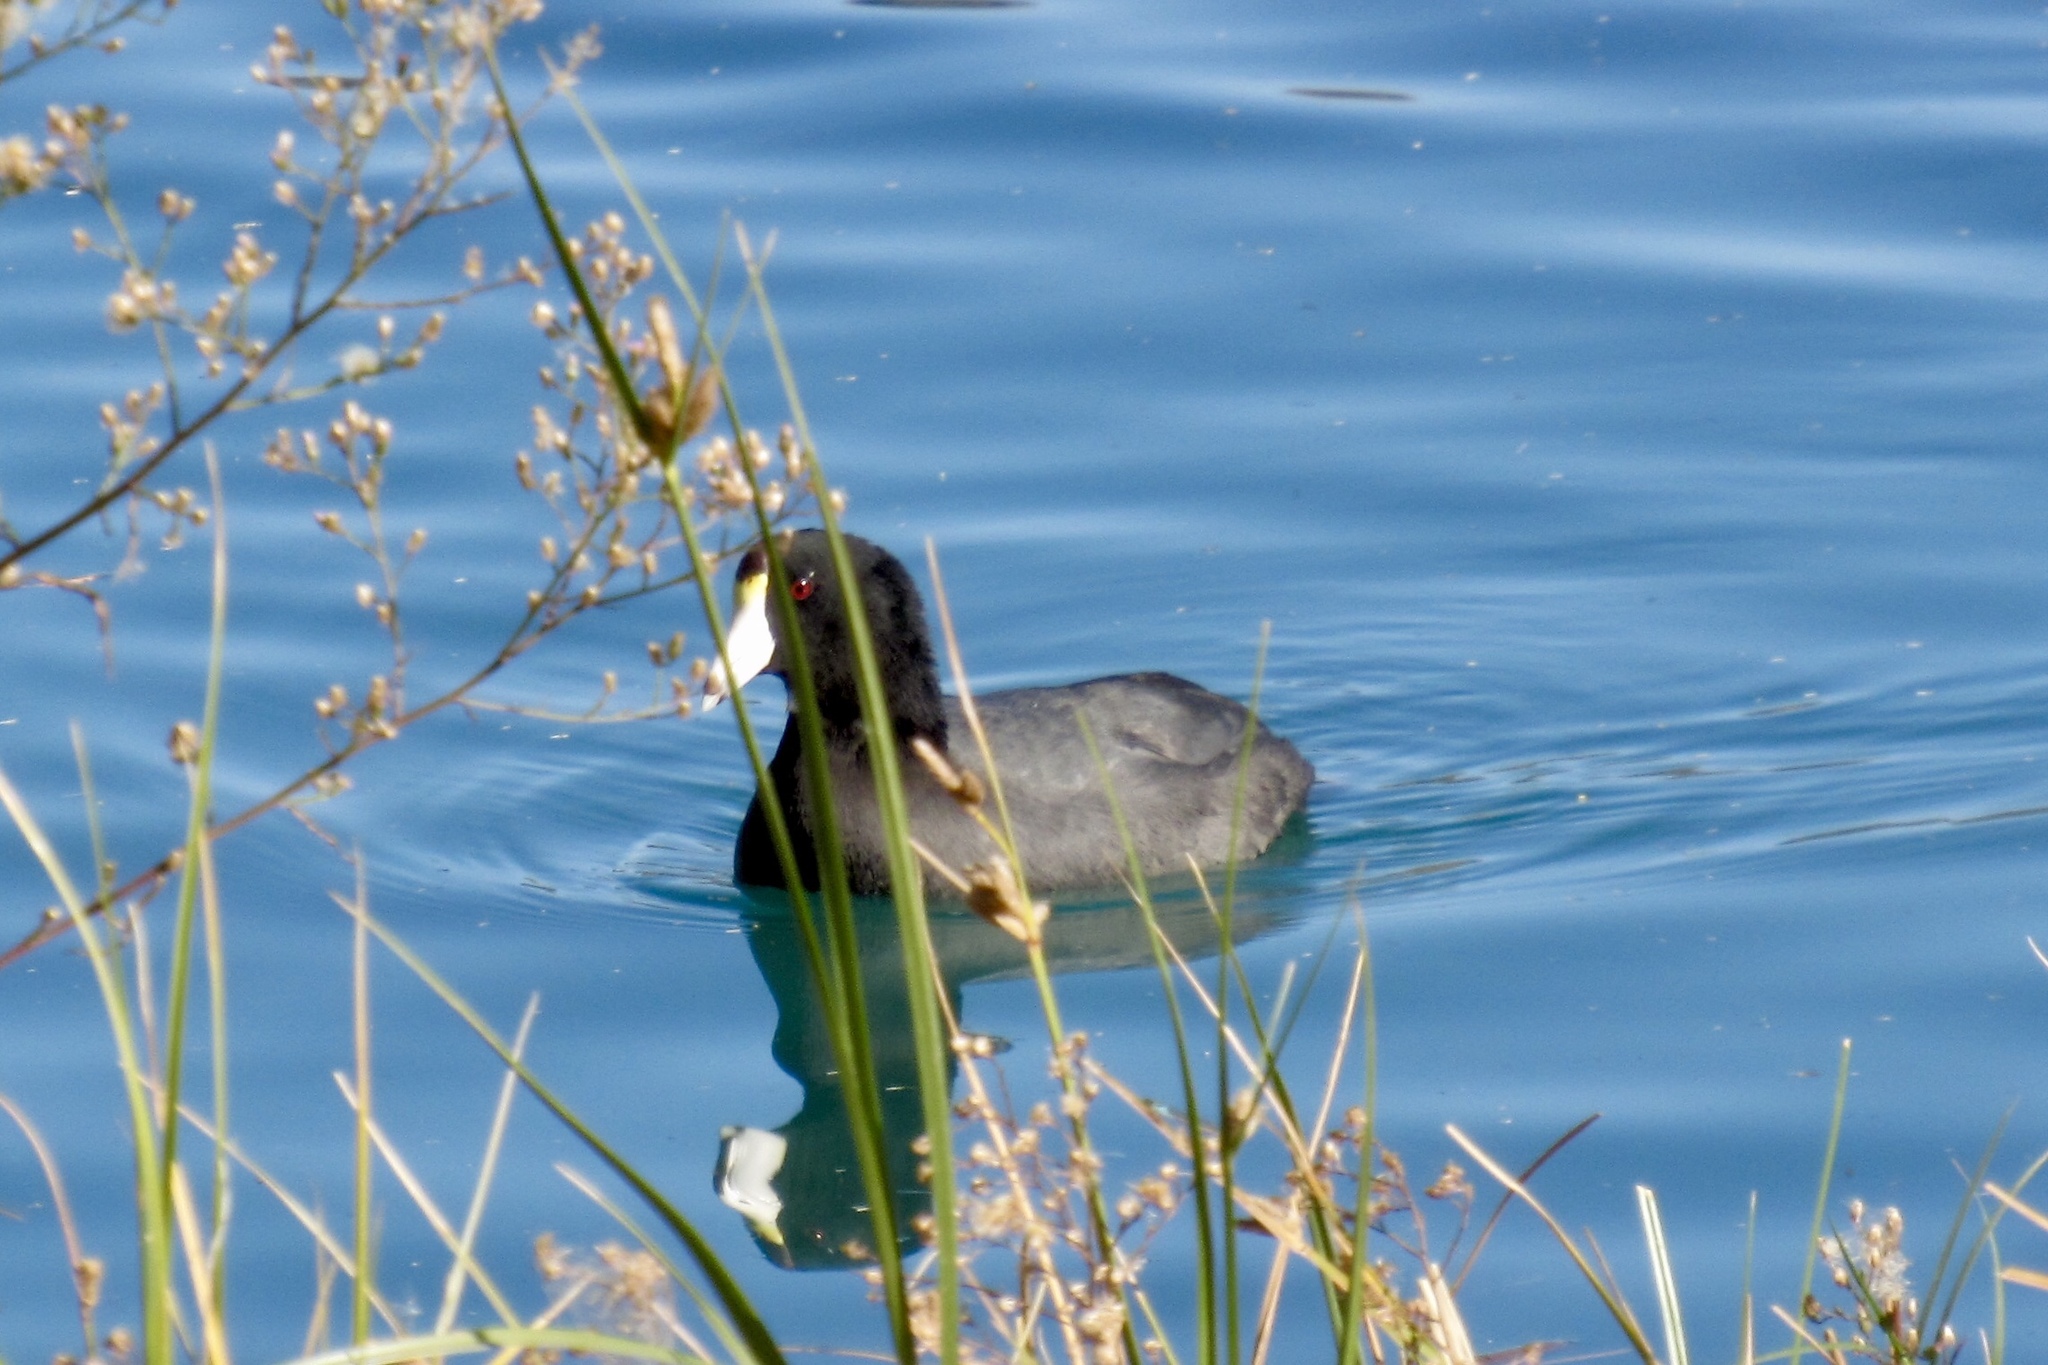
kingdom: Animalia
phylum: Chordata
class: Aves
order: Gruiformes
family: Rallidae
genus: Fulica
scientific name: Fulica americana
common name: American coot
